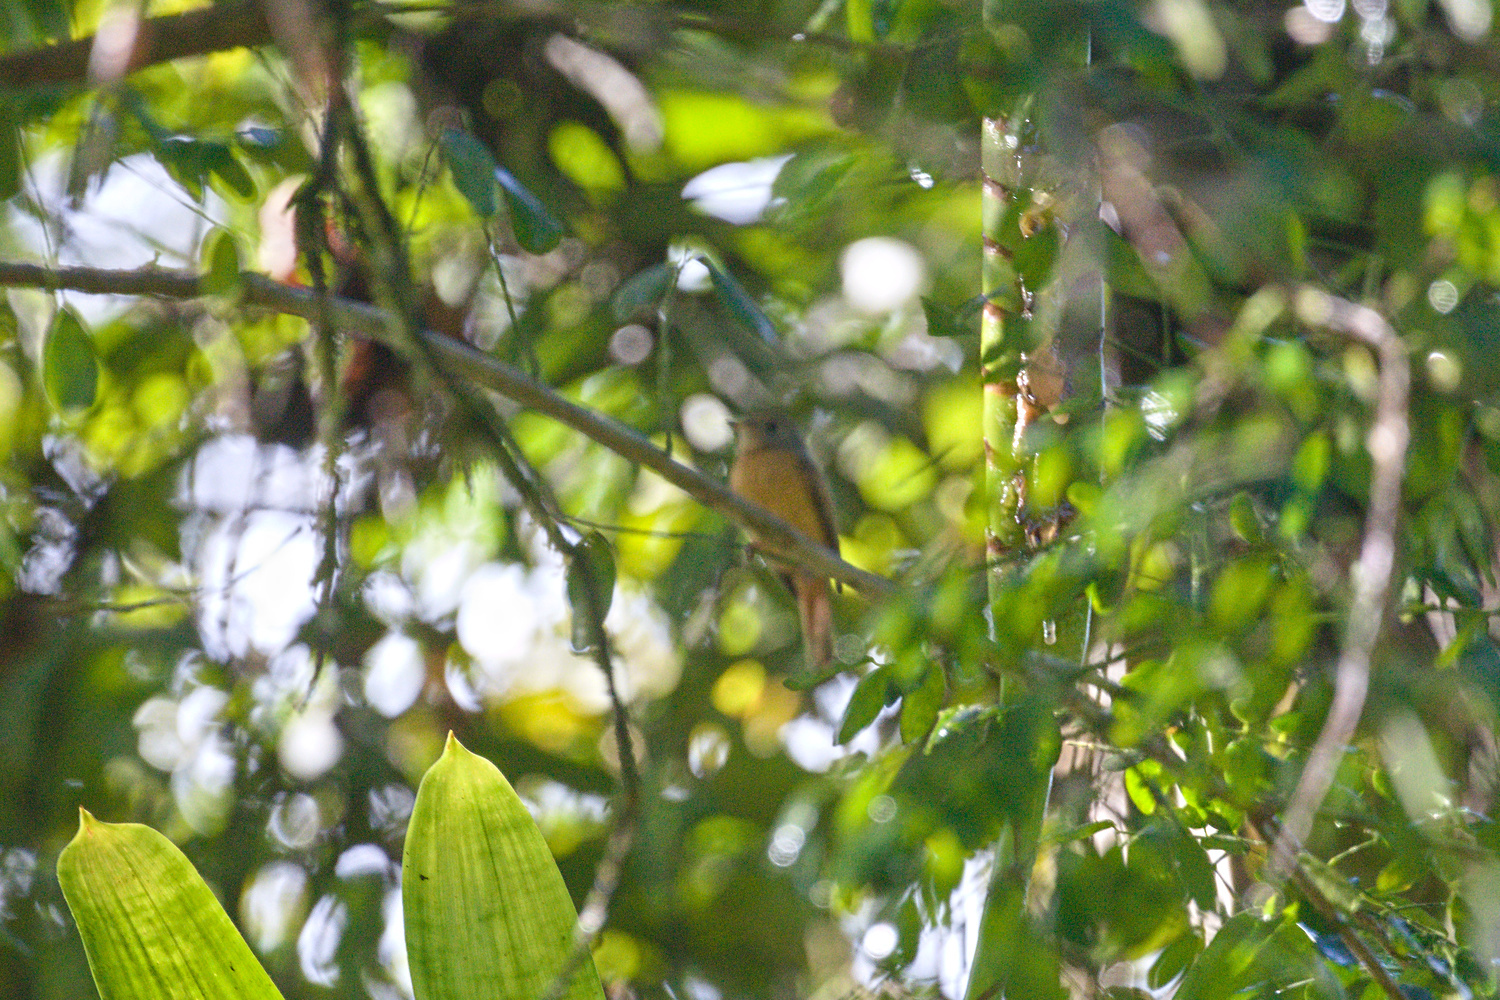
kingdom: Animalia
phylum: Chordata
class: Aves
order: Passeriformes
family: Tyrannidae
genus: Terenotriccus
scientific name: Terenotriccus erythrurus
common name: Ruddy-tailed flycatcher
